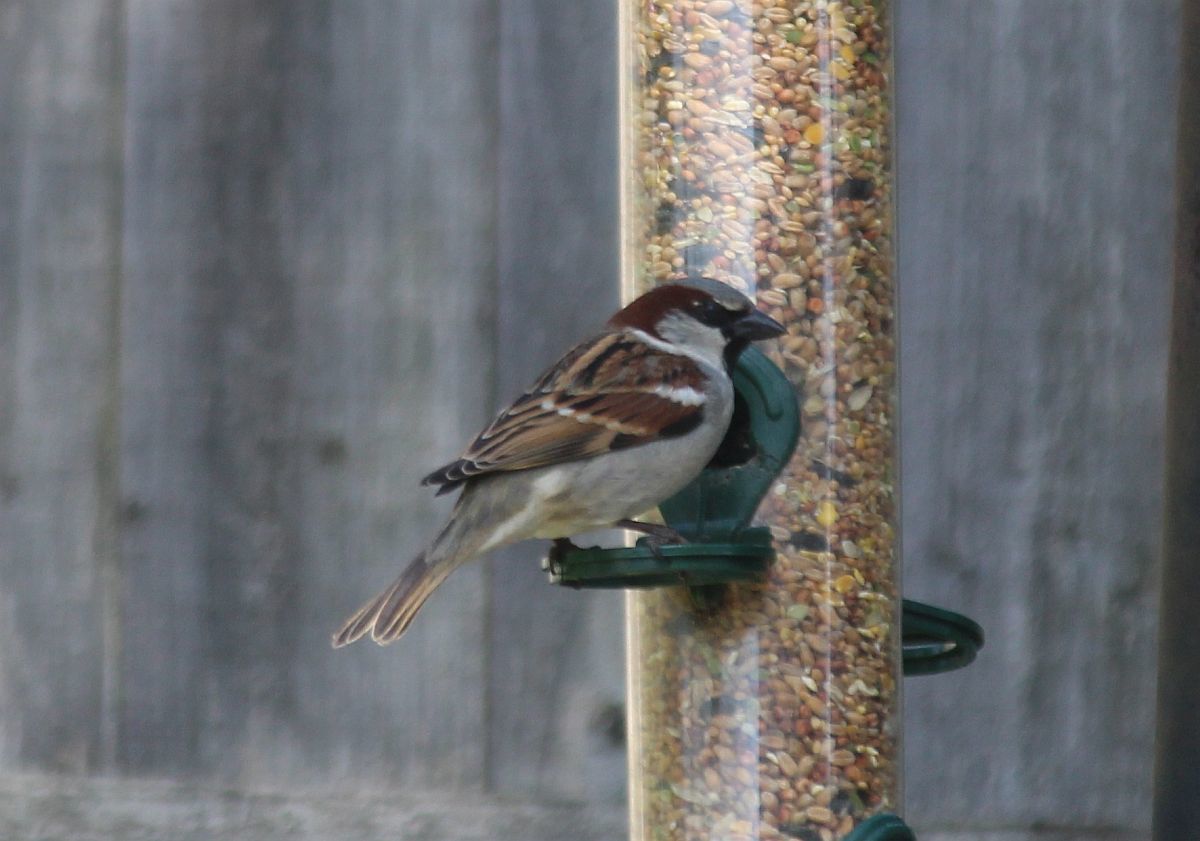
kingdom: Animalia
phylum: Chordata
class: Aves
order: Passeriformes
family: Passeridae
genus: Passer
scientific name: Passer domesticus
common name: House sparrow
